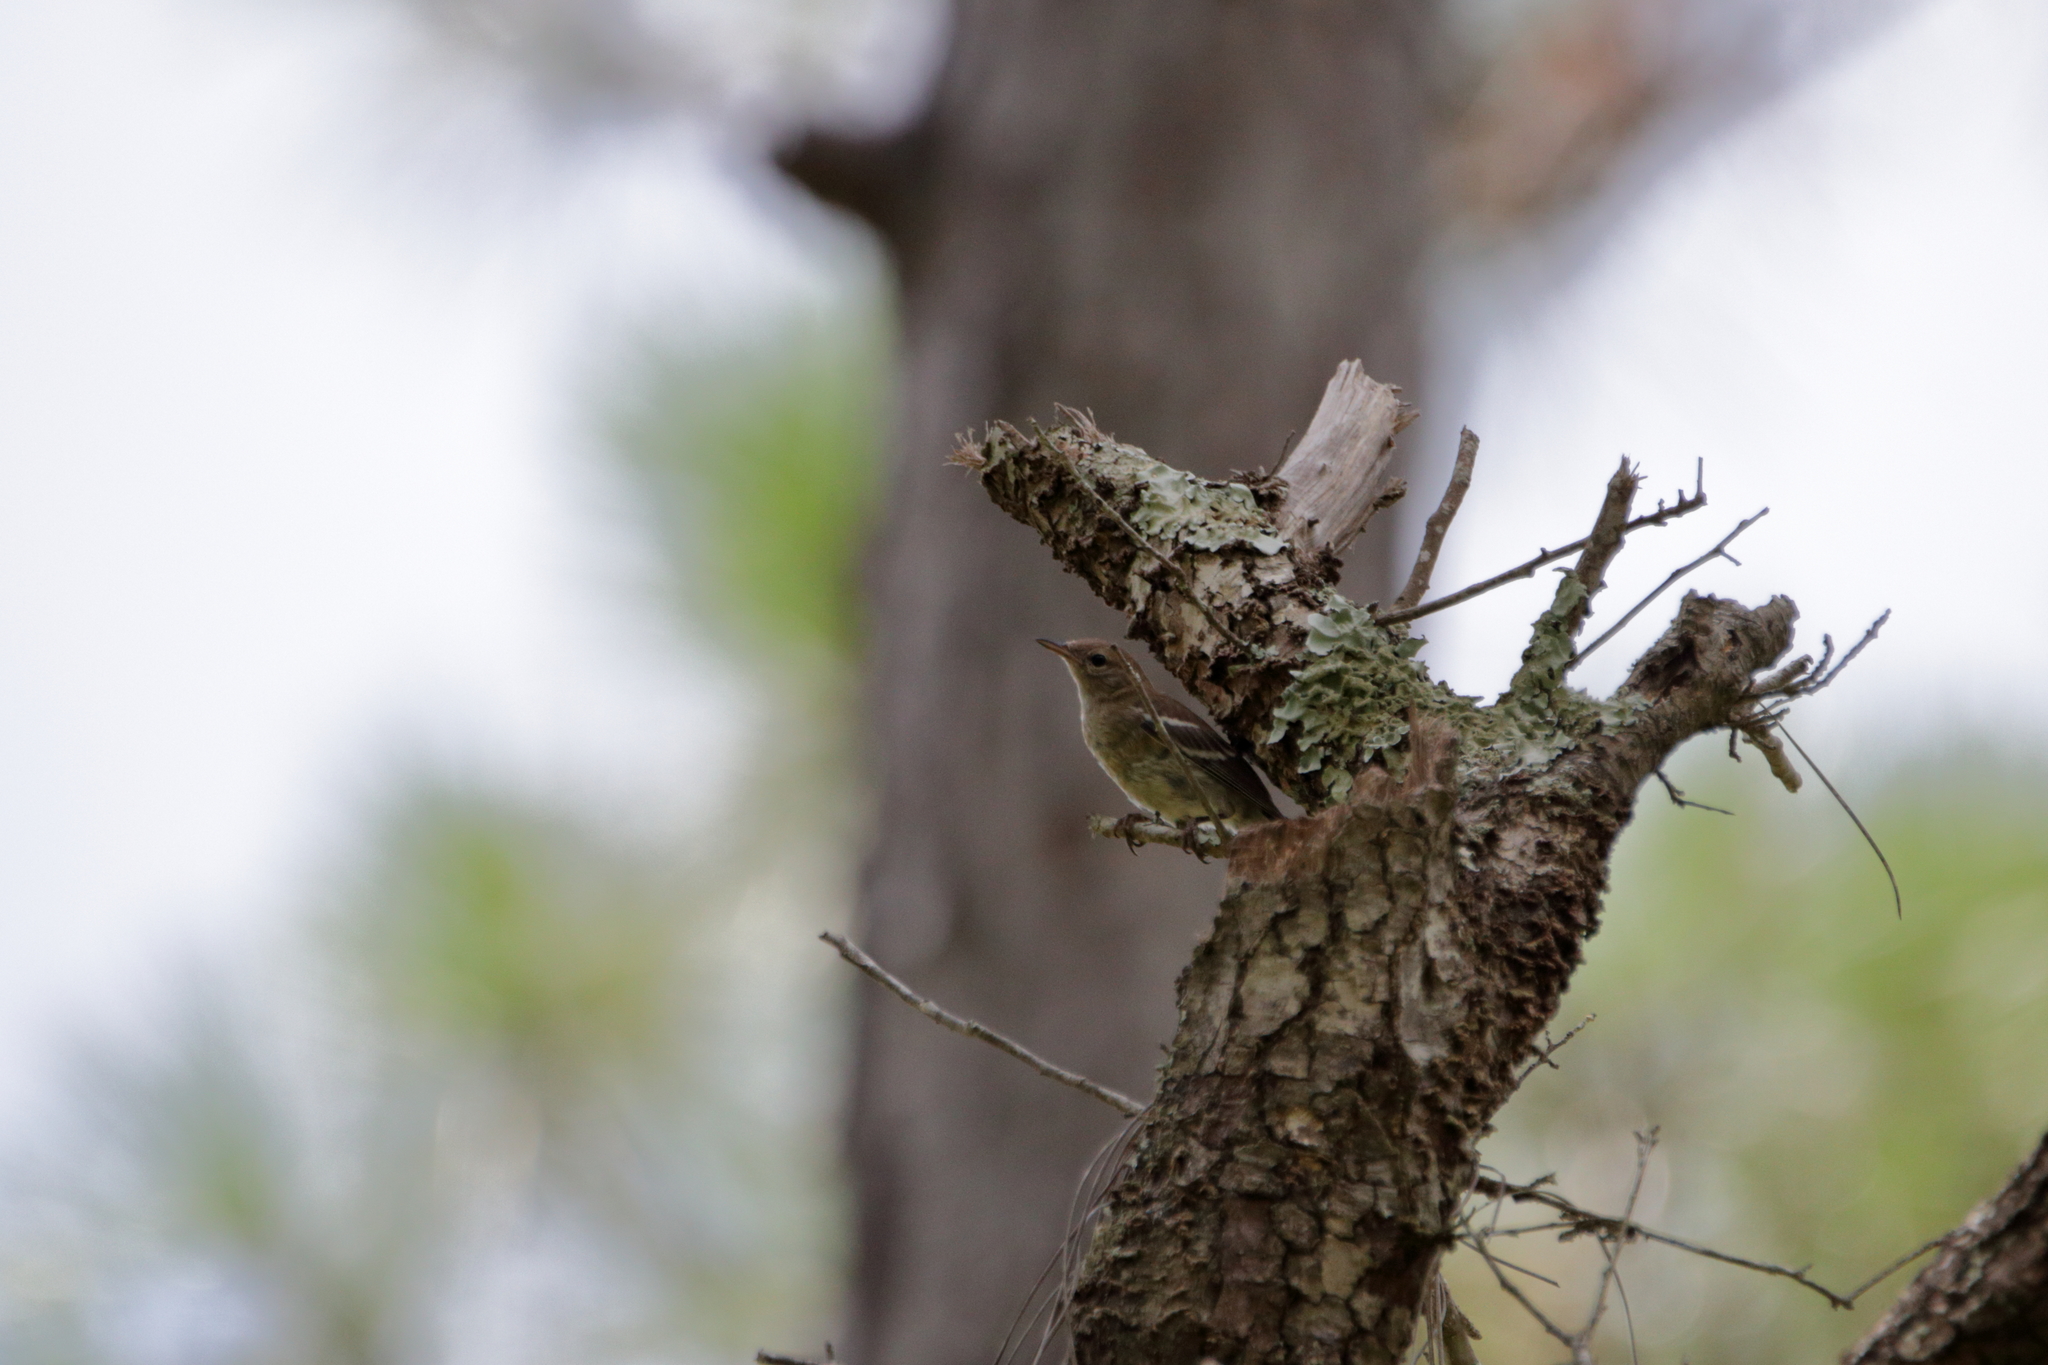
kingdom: Animalia
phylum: Chordata
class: Aves
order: Passeriformes
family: Parulidae
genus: Setophaga
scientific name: Setophaga pinus
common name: Pine warbler
